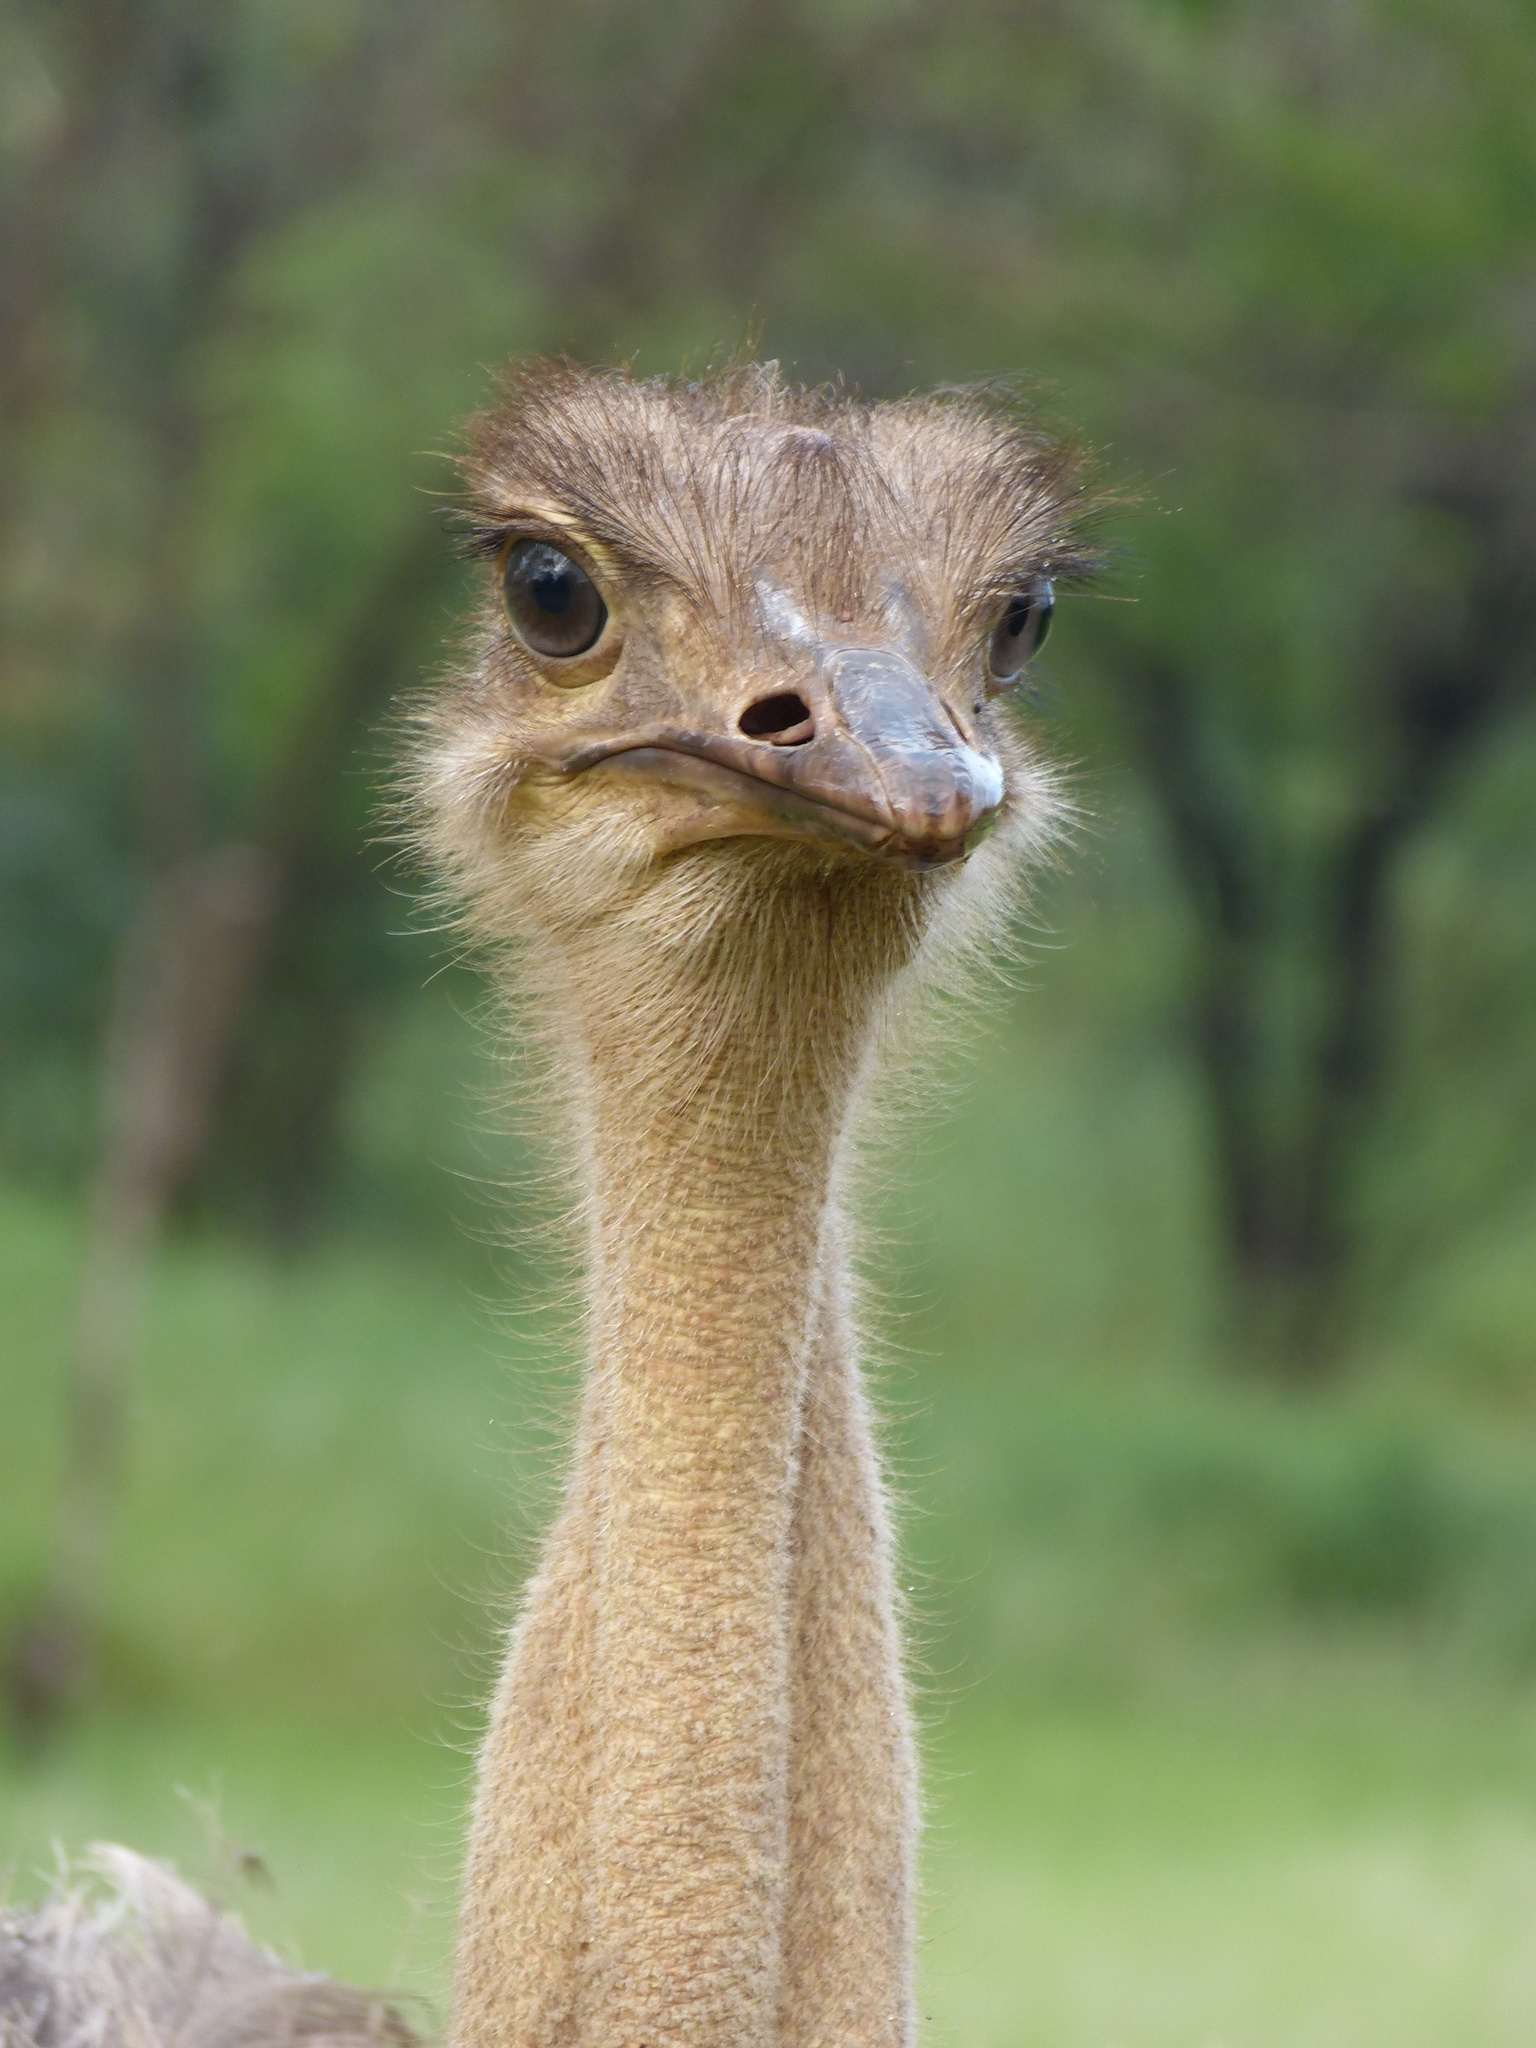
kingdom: Animalia
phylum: Chordata
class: Aves
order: Struthioniformes
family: Struthionidae
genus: Struthio
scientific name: Struthio camelus
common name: Common ostrich
